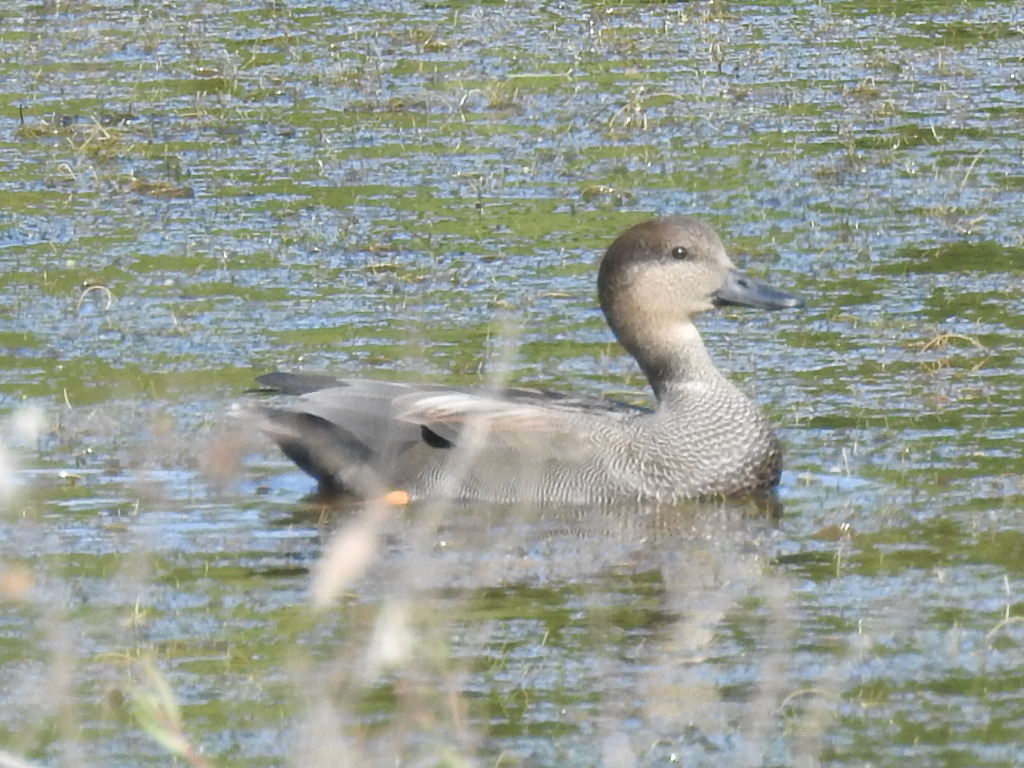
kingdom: Animalia
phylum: Chordata
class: Aves
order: Anseriformes
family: Anatidae
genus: Mareca
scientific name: Mareca strepera
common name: Gadwall
